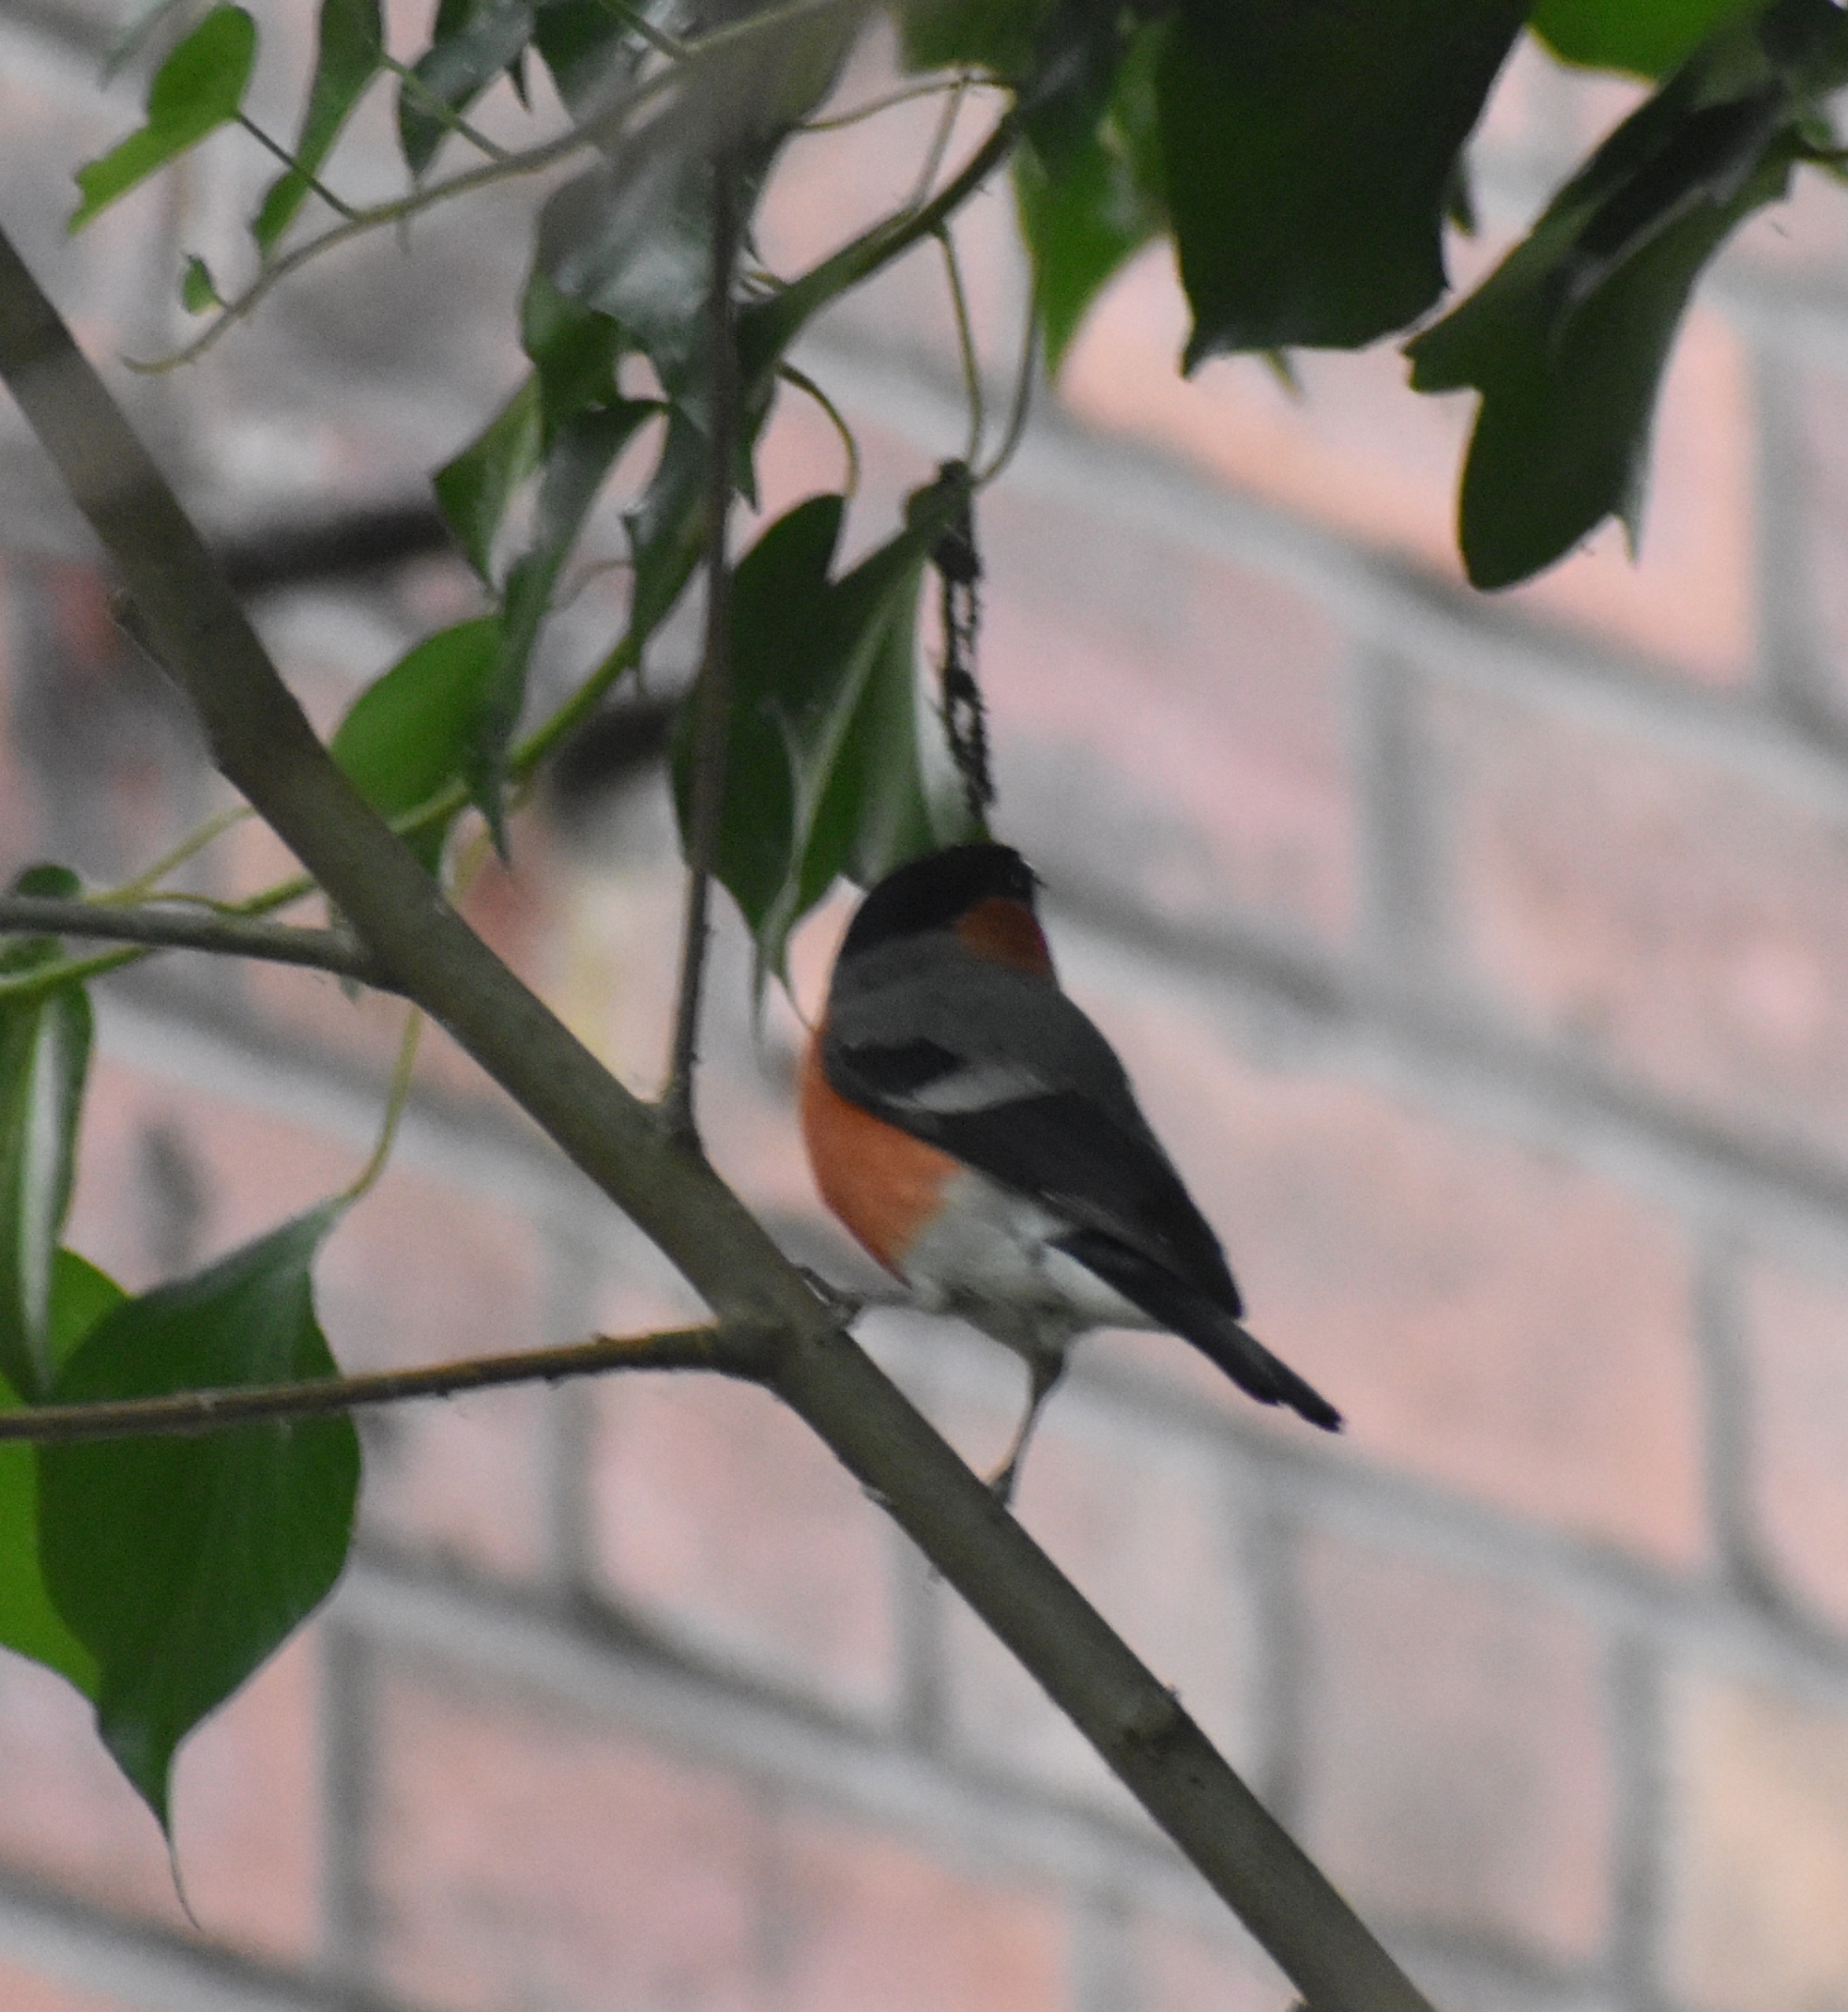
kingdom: Animalia
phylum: Chordata
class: Aves
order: Passeriformes
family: Fringillidae
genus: Pyrrhula
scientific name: Pyrrhula pyrrhula
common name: Eurasian bullfinch
